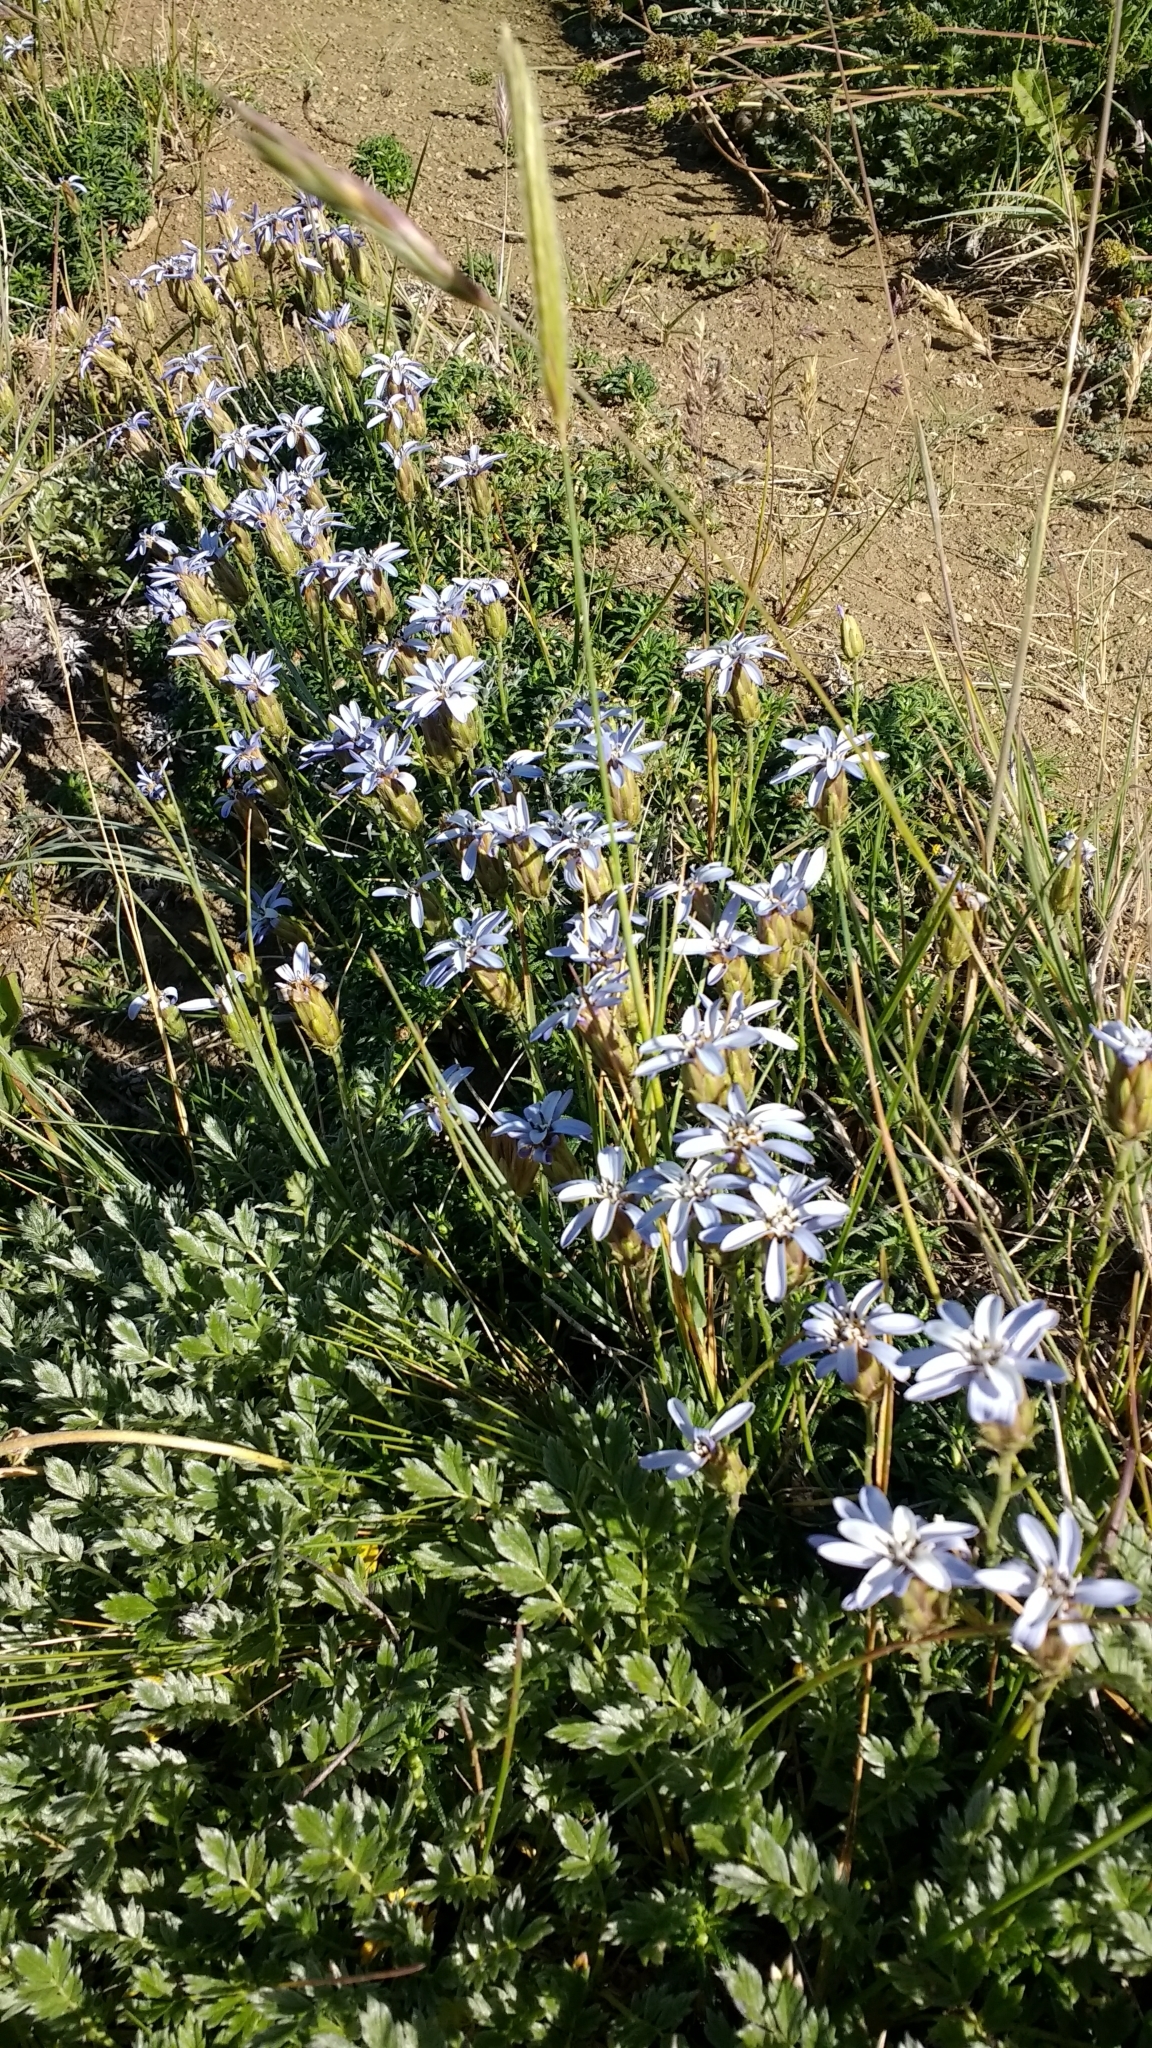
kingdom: Plantae
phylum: Tracheophyta
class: Magnoliopsida
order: Asterales
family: Asteraceae
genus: Perezia
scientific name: Perezia recurvata
